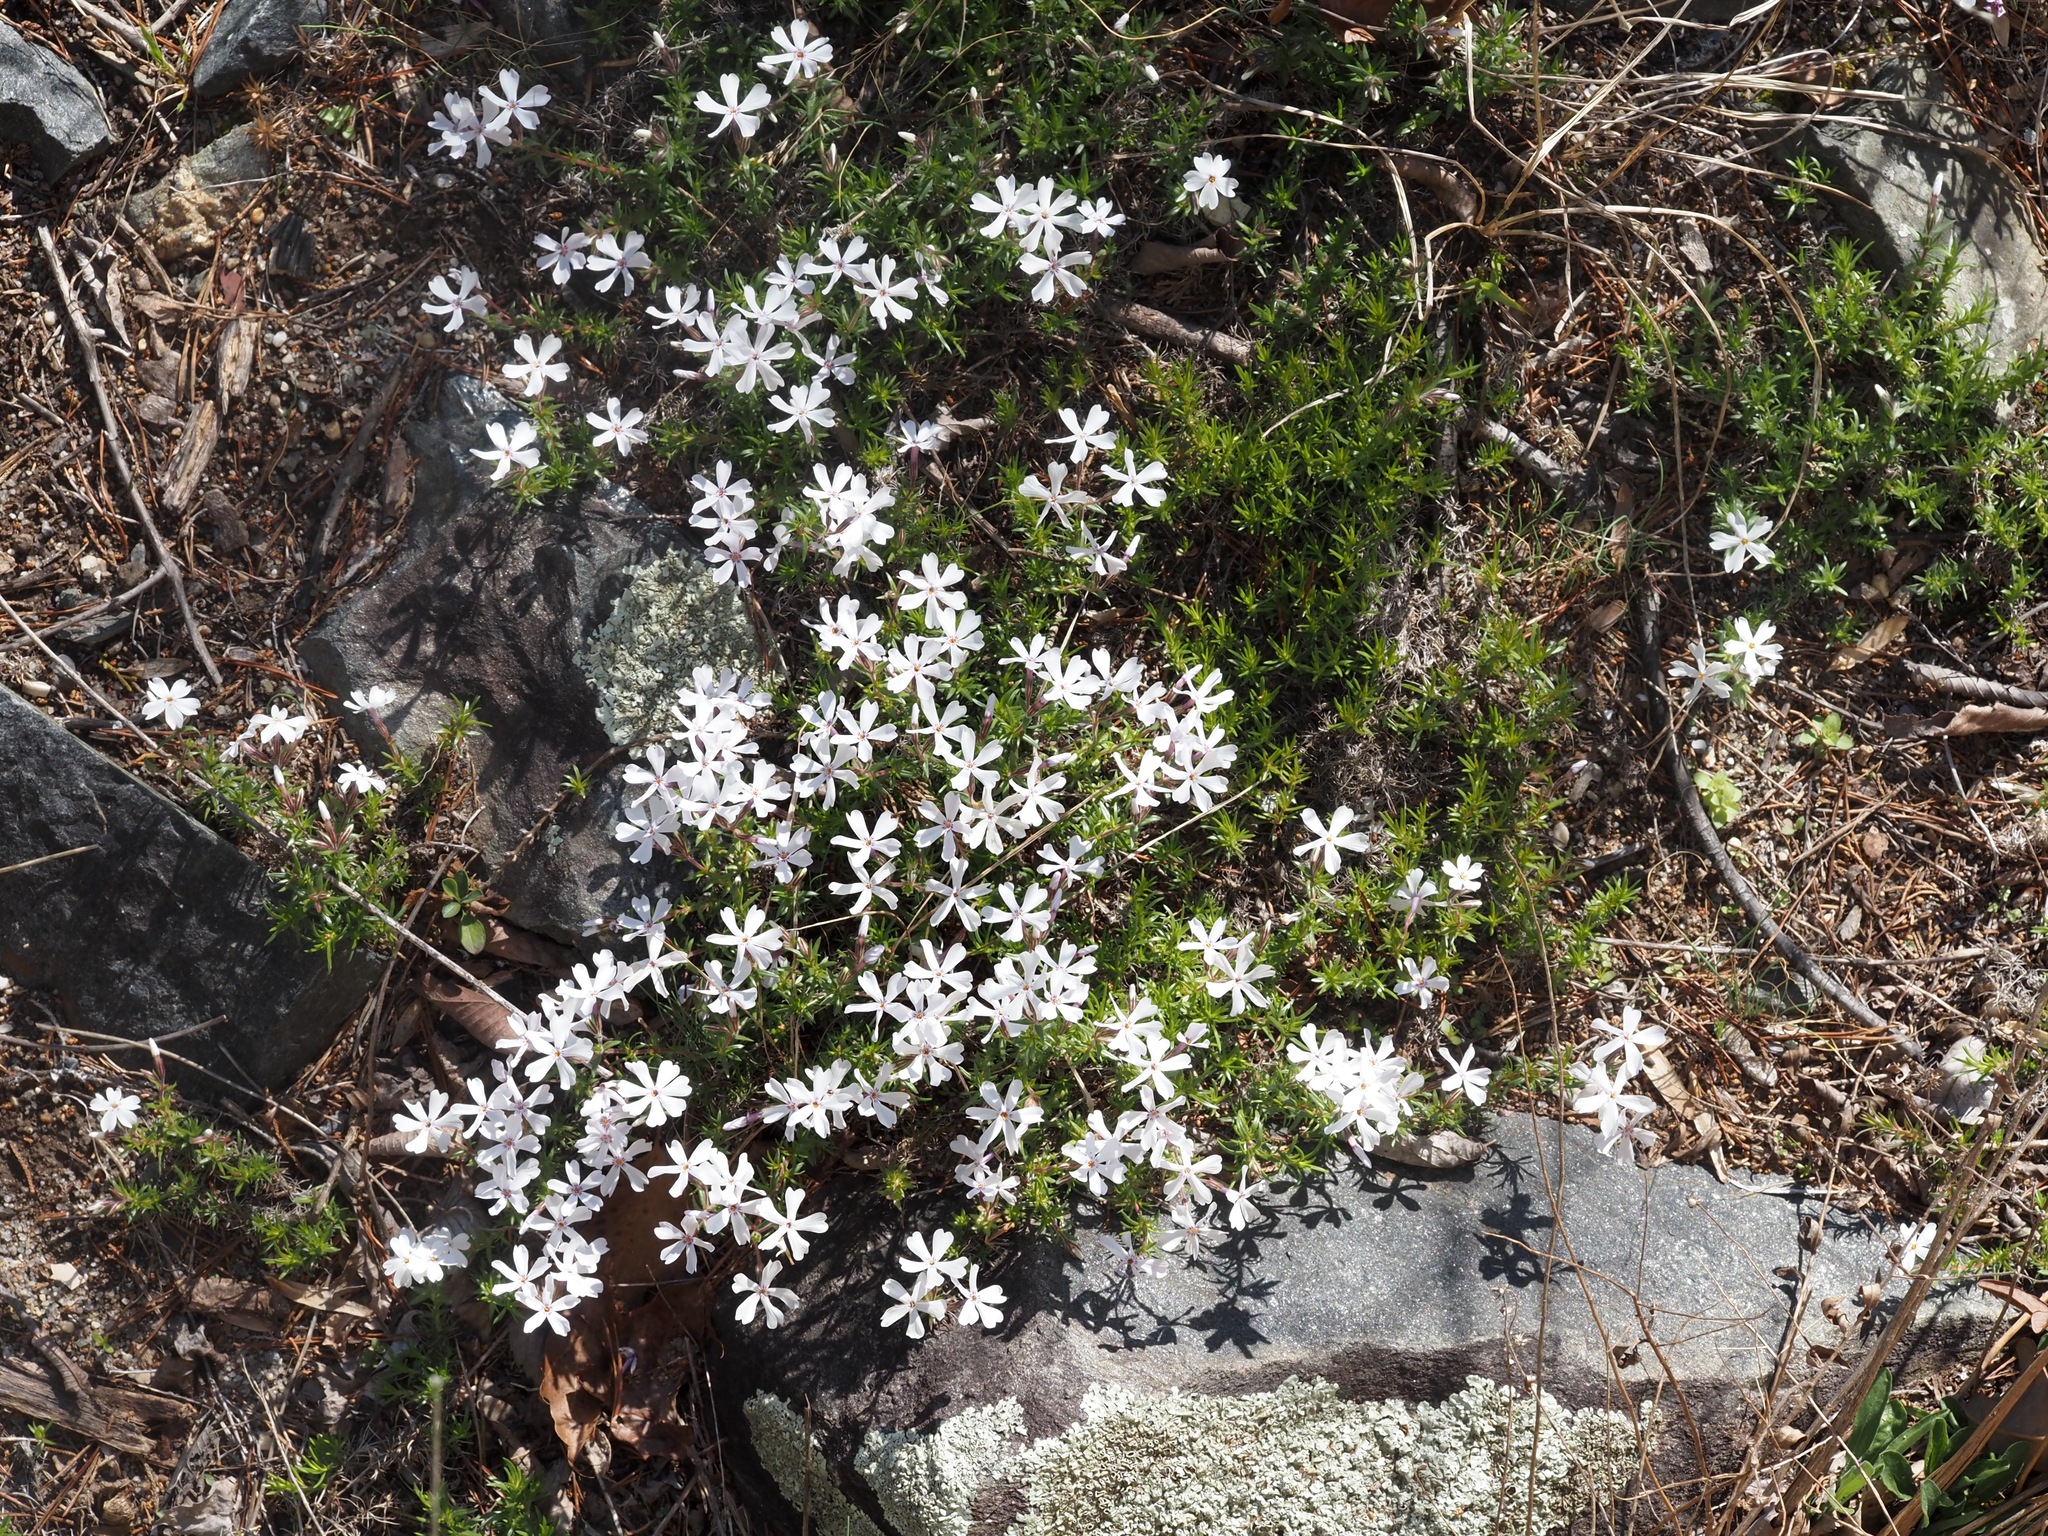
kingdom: Plantae
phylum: Tracheophyta
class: Magnoliopsida
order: Ericales
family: Polemoniaceae
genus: Phlox
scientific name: Phlox subulata
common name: Moss phlox
